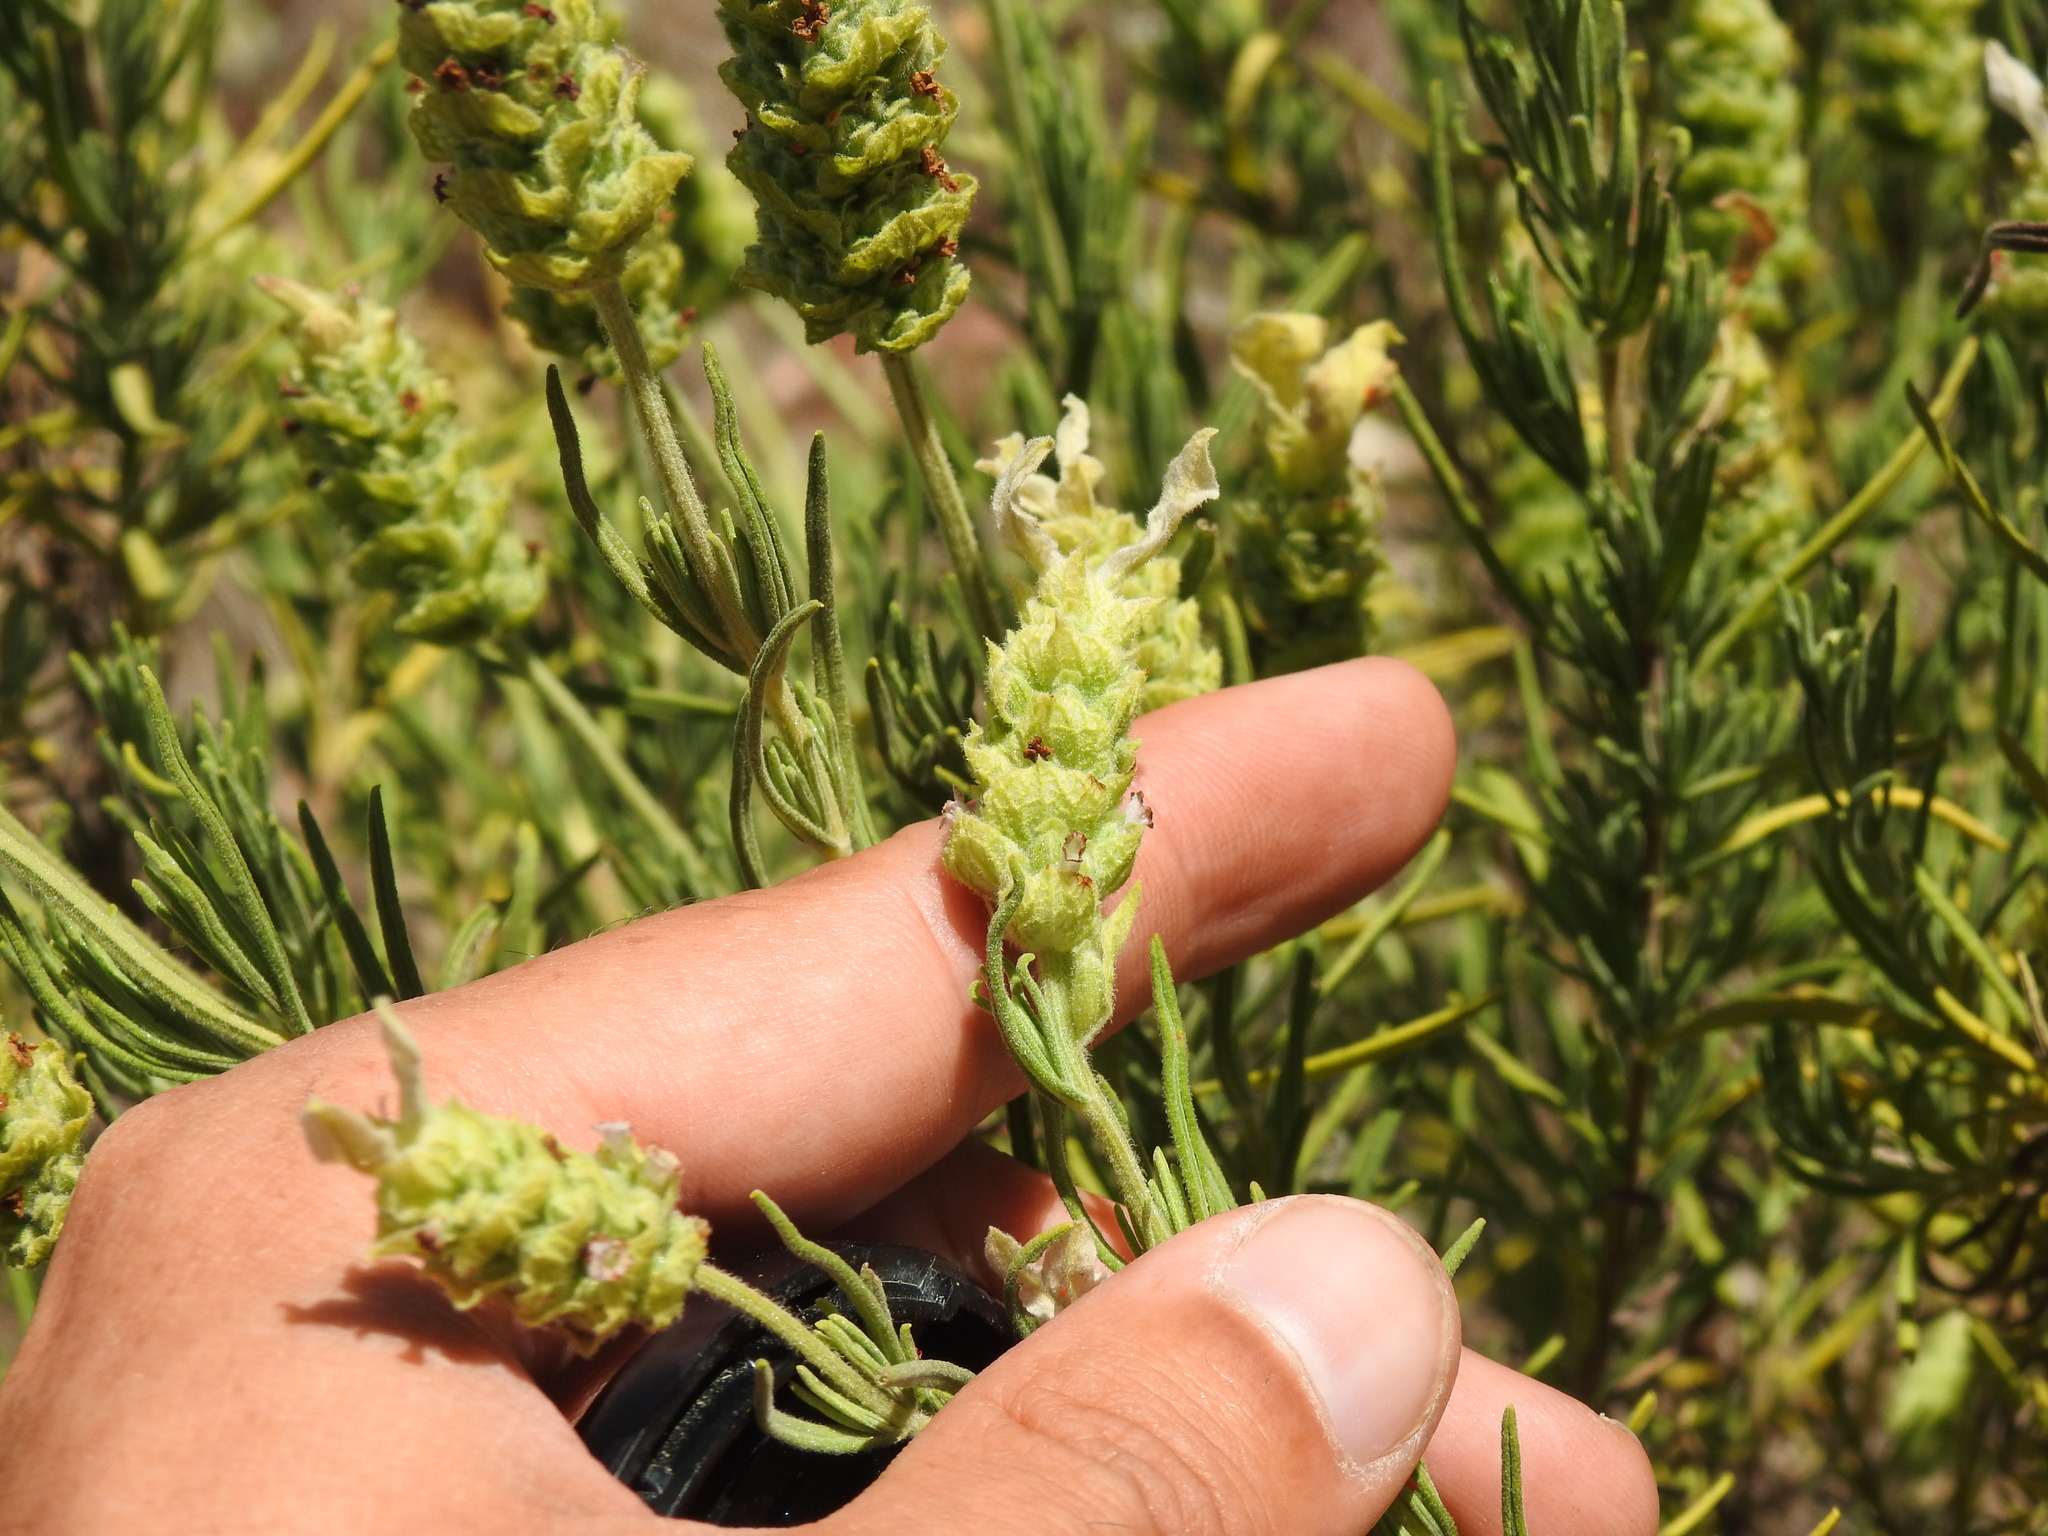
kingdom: Plantae
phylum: Tracheophyta
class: Magnoliopsida
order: Lamiales
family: Lamiaceae
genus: Lavandula
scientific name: Lavandula viridis
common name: Green spanish lavender
